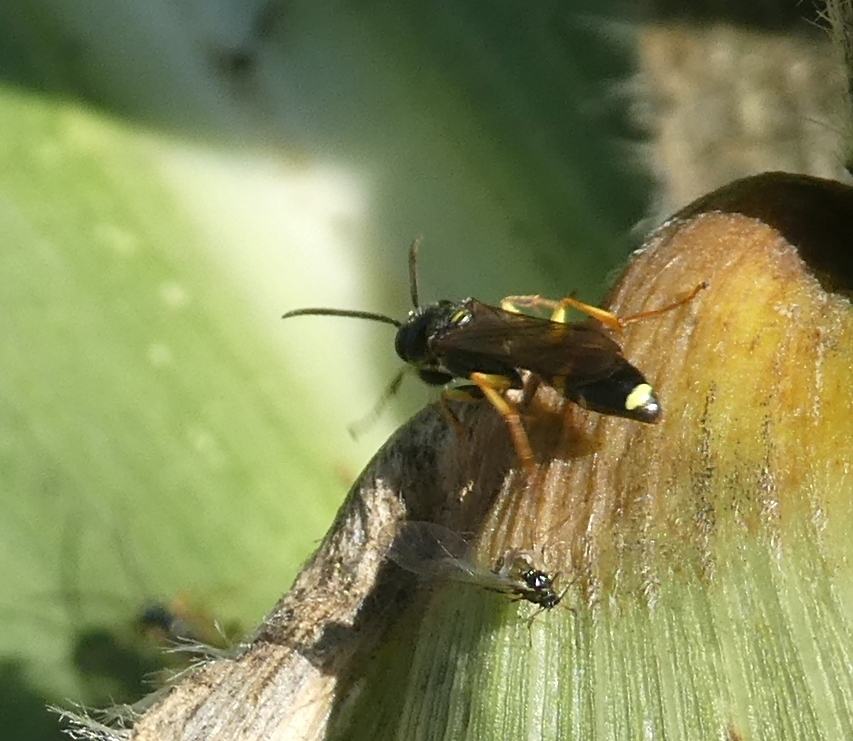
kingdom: Animalia
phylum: Arthropoda
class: Insecta
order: Hymenoptera
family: Crabronidae
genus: Mellinus
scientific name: Mellinus arvensis
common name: Field digger wasp
